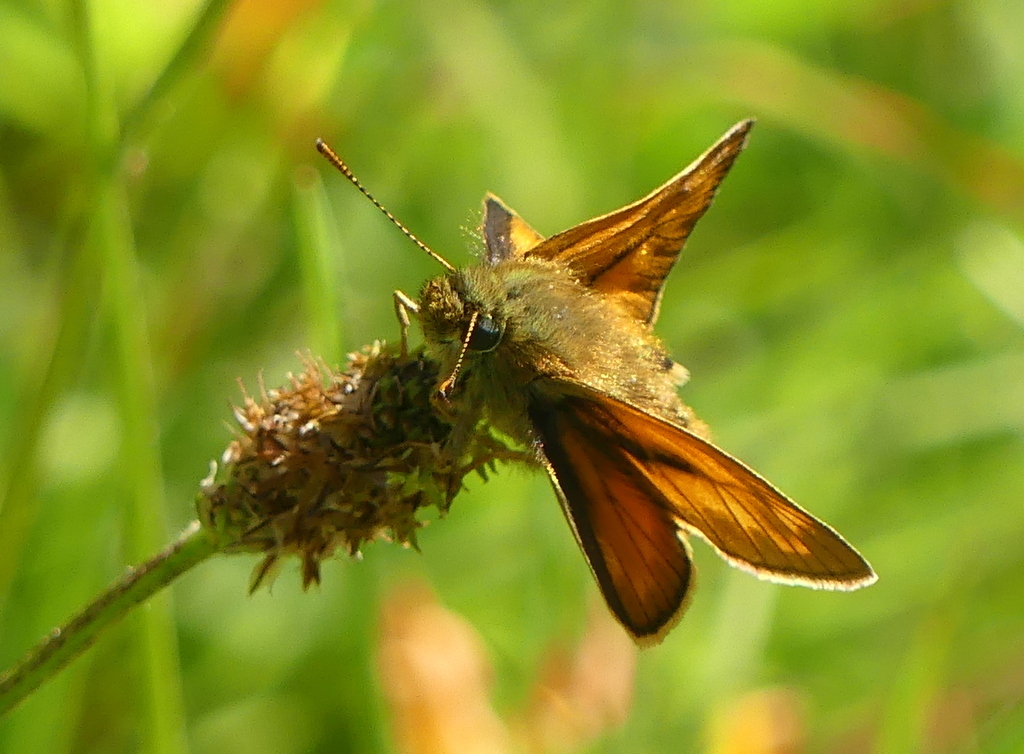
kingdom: Animalia
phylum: Arthropoda
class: Insecta
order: Lepidoptera
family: Hesperiidae
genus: Ochlodes
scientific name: Ochlodes venata
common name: Large skipper
